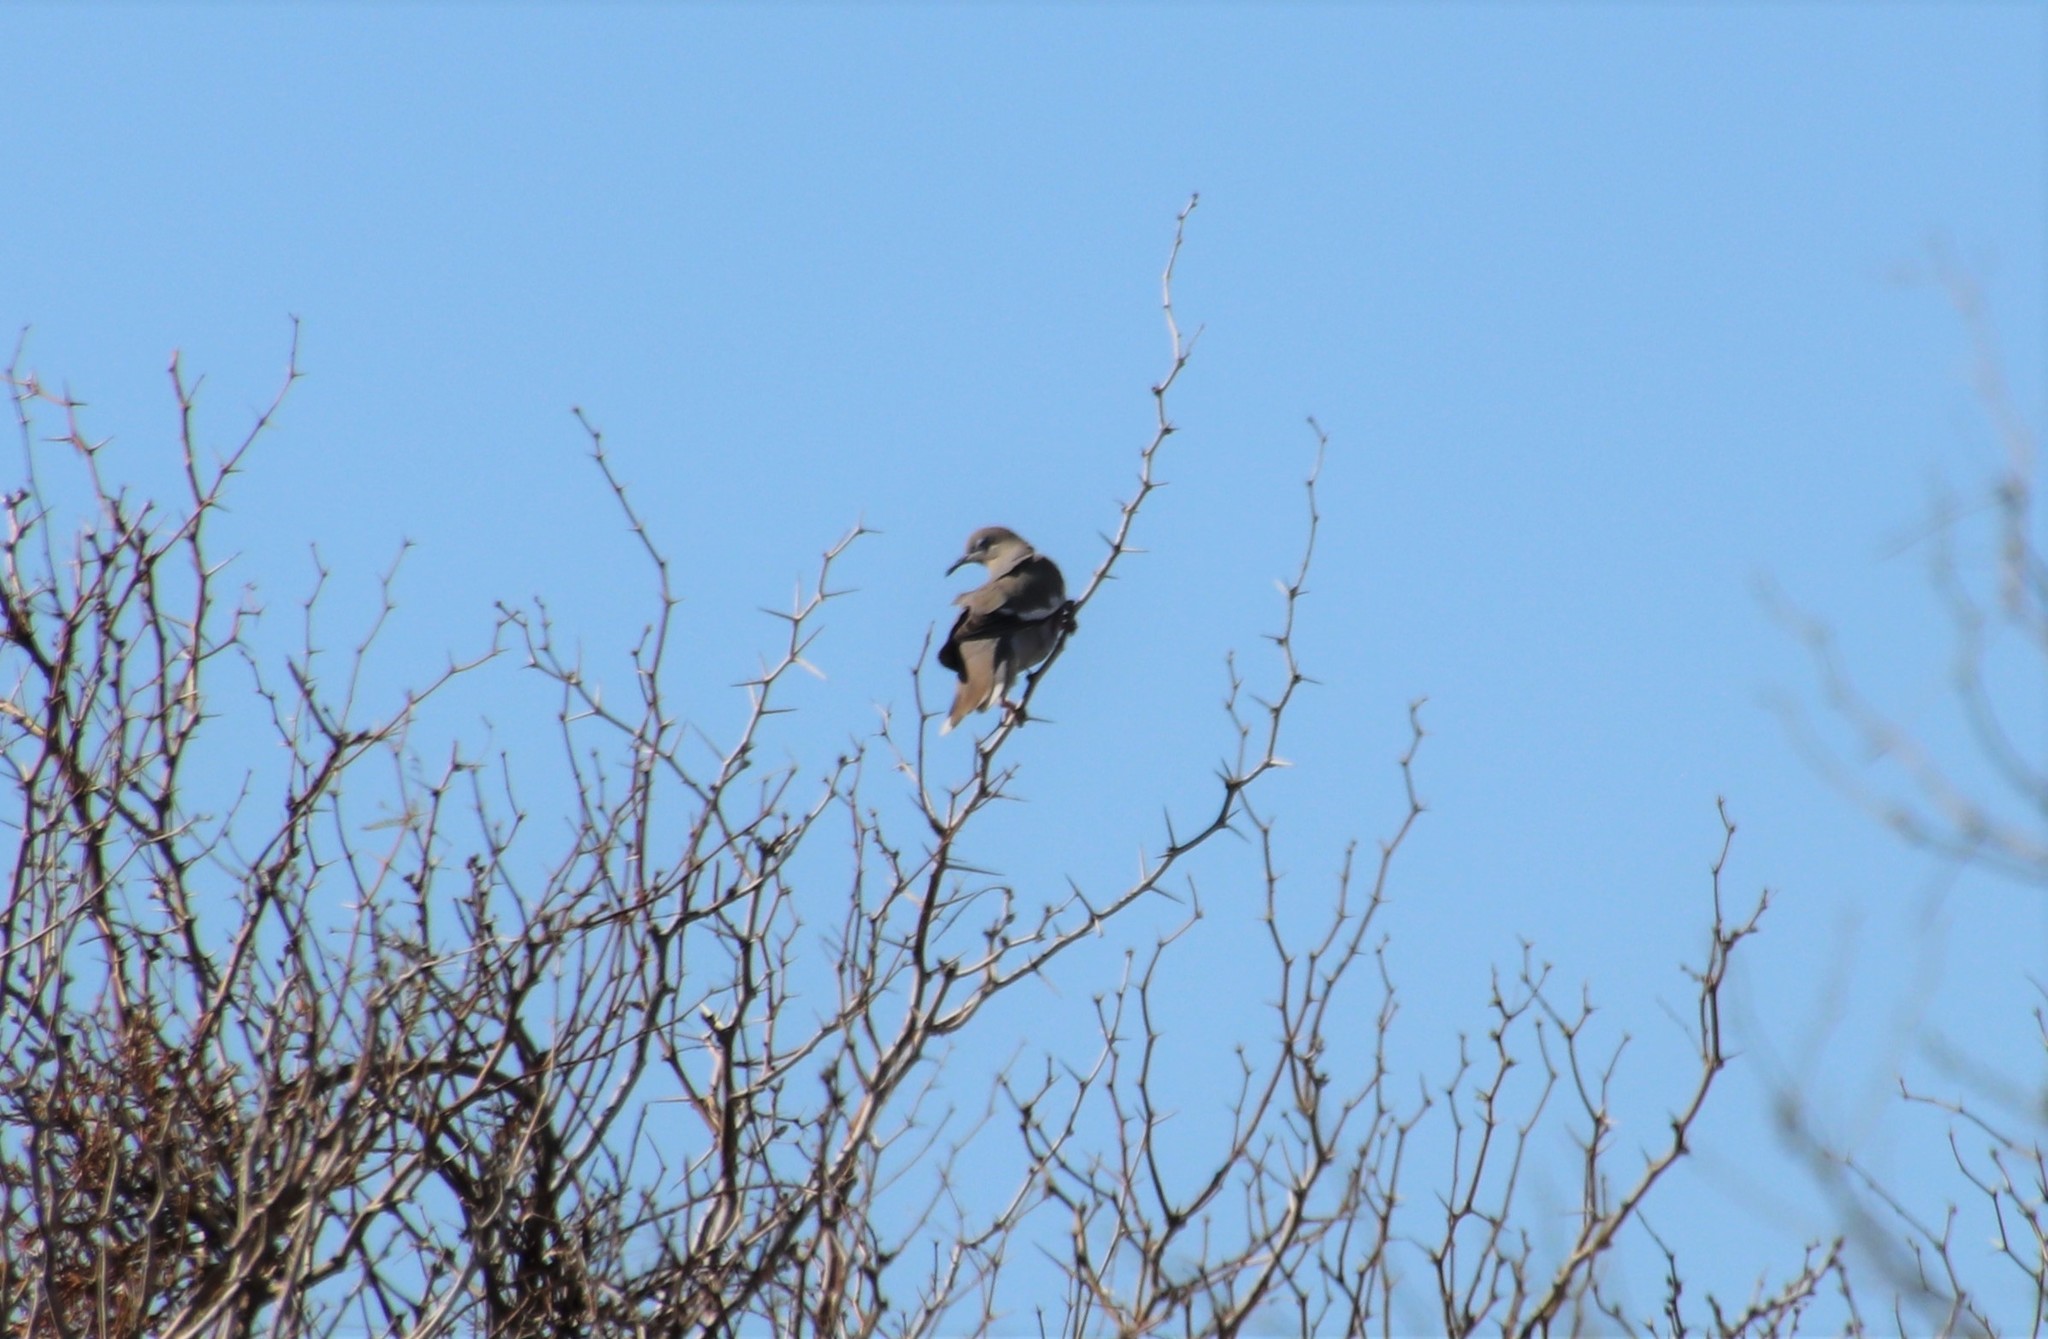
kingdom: Animalia
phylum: Chordata
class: Aves
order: Columbiformes
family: Columbidae
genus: Zenaida
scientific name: Zenaida asiatica
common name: White-winged dove
